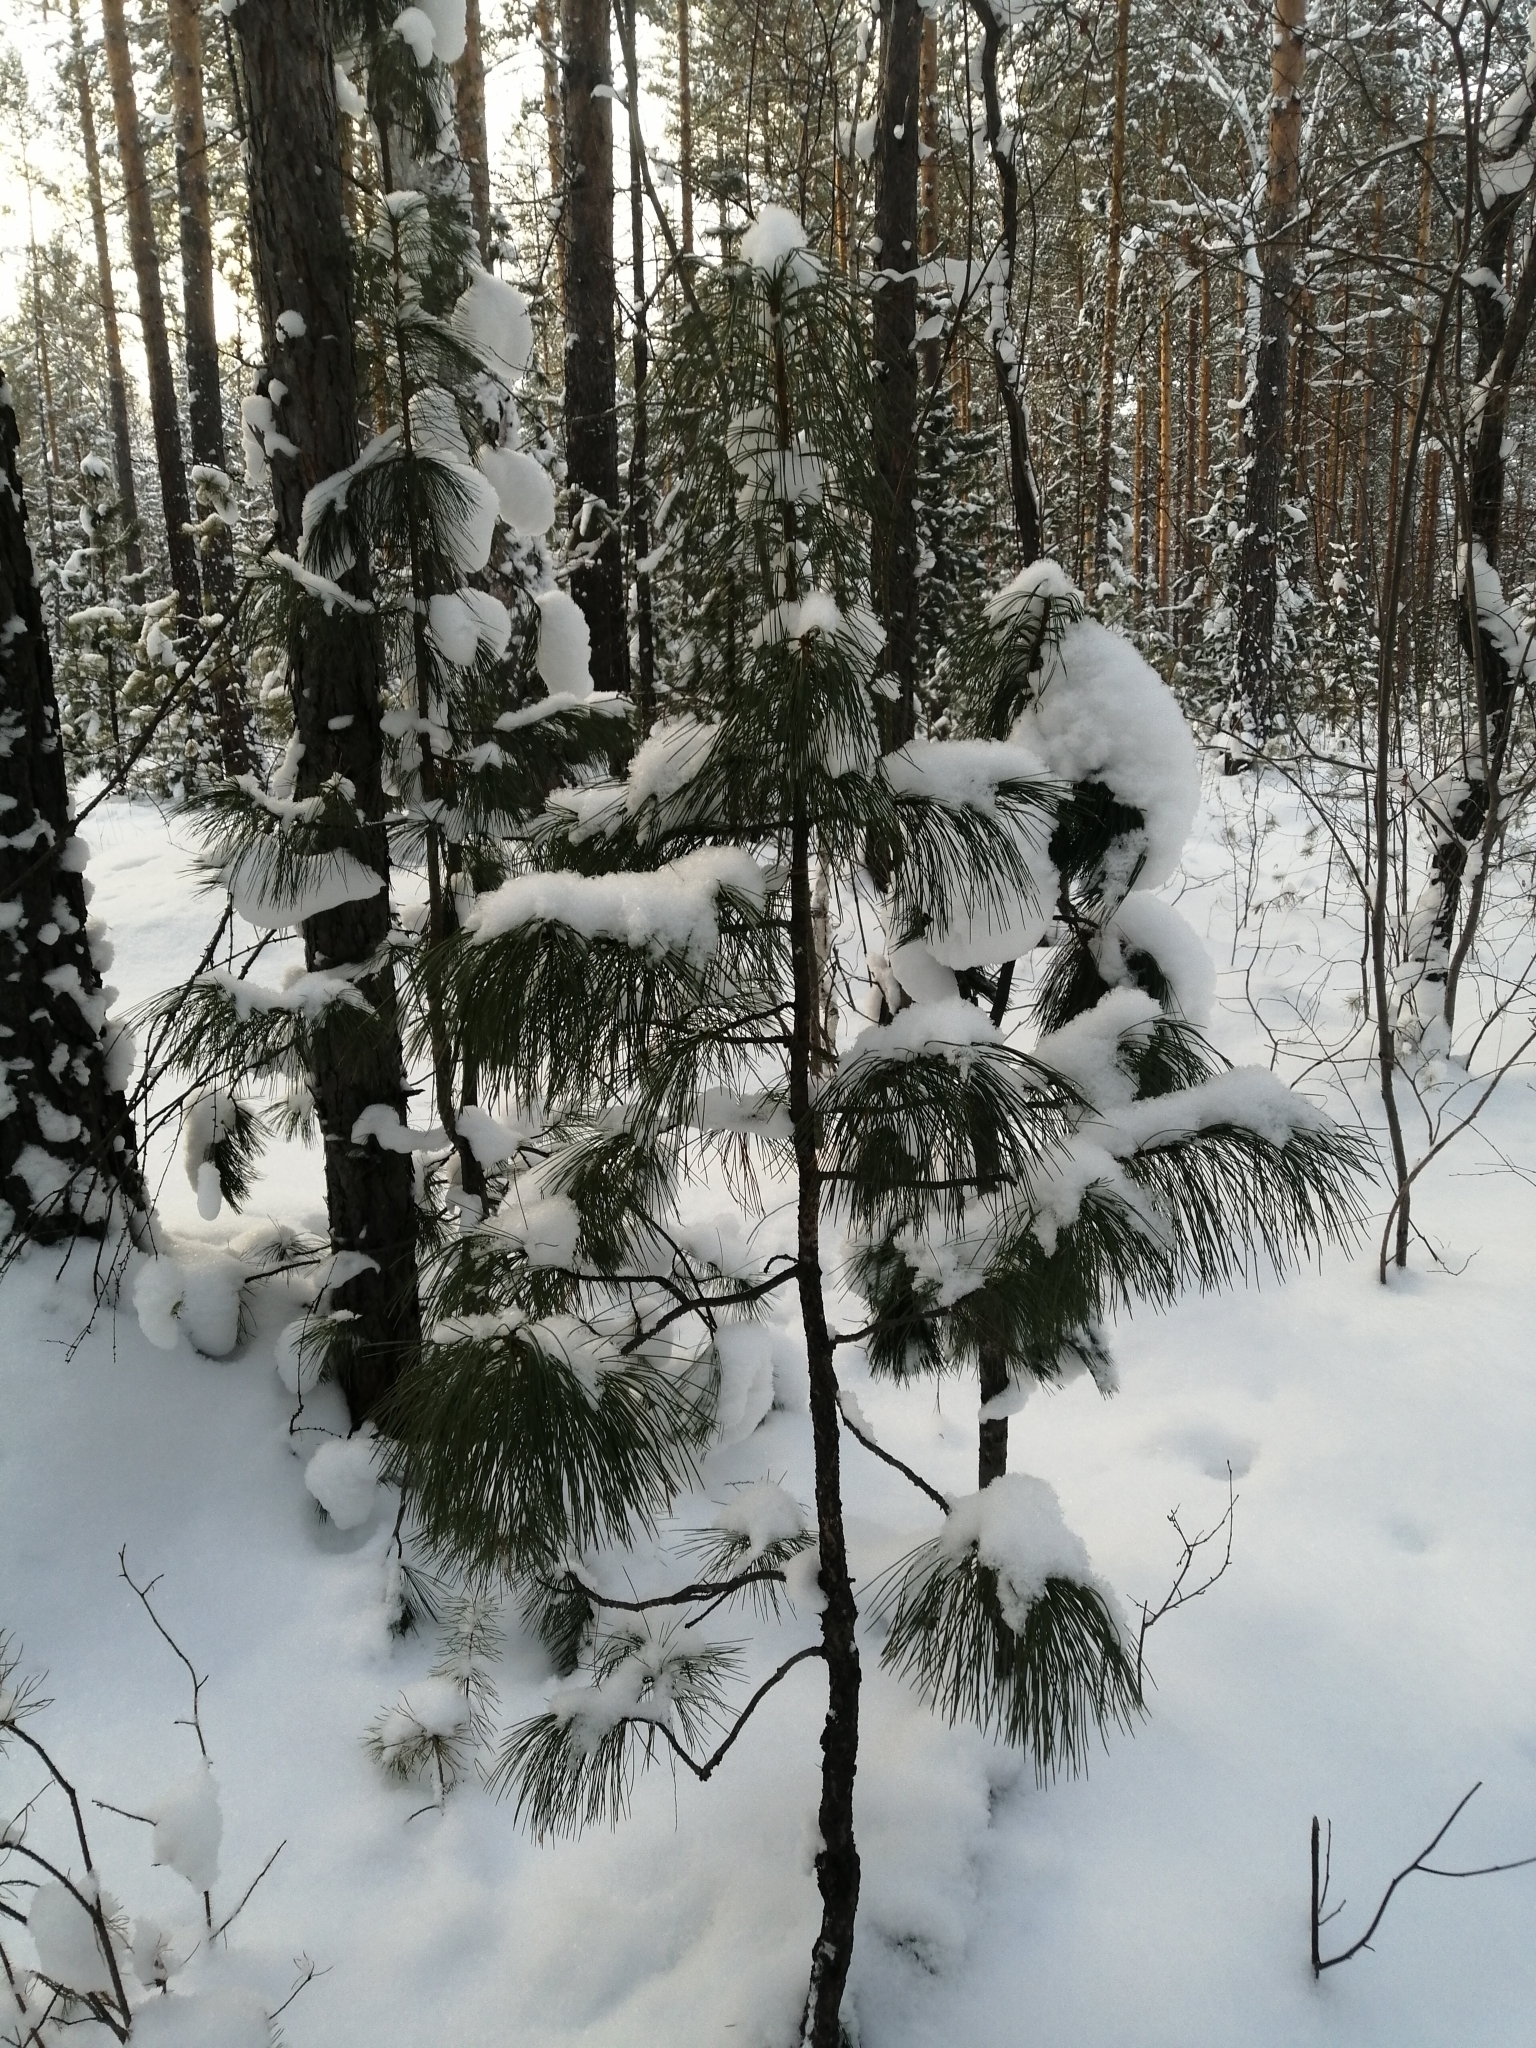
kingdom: Plantae
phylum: Tracheophyta
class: Pinopsida
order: Pinales
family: Pinaceae
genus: Pinus
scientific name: Pinus sibirica
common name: Siberian pine
